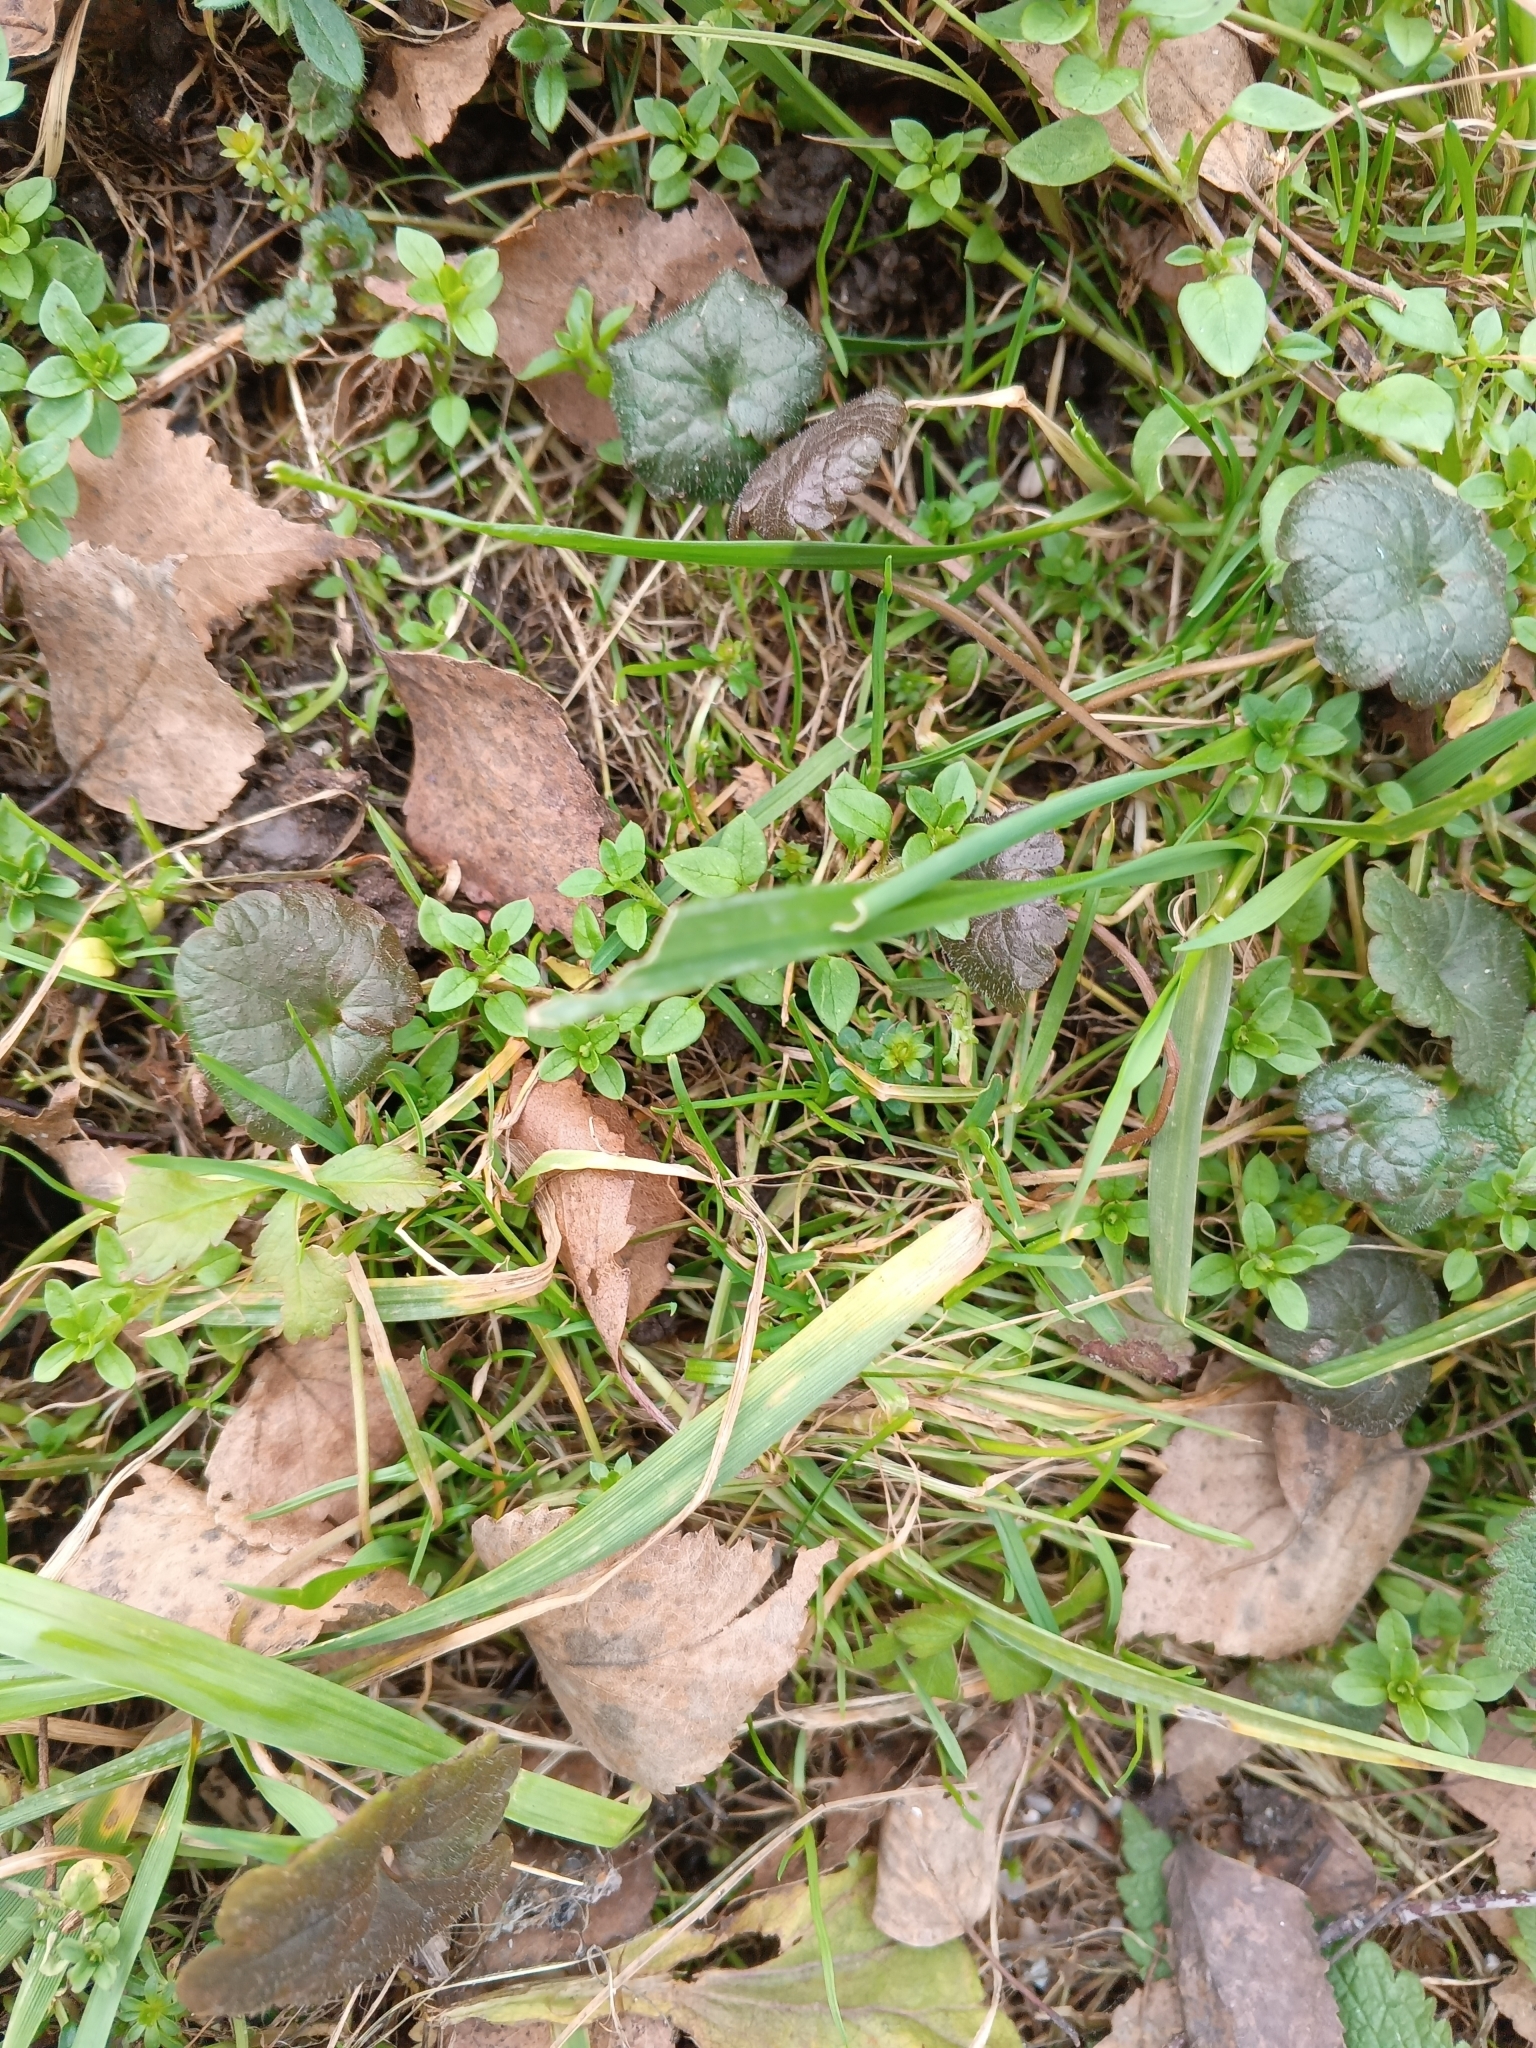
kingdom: Plantae
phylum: Tracheophyta
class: Magnoliopsida
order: Lamiales
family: Lamiaceae
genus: Glechoma
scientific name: Glechoma hederacea
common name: Ground ivy
